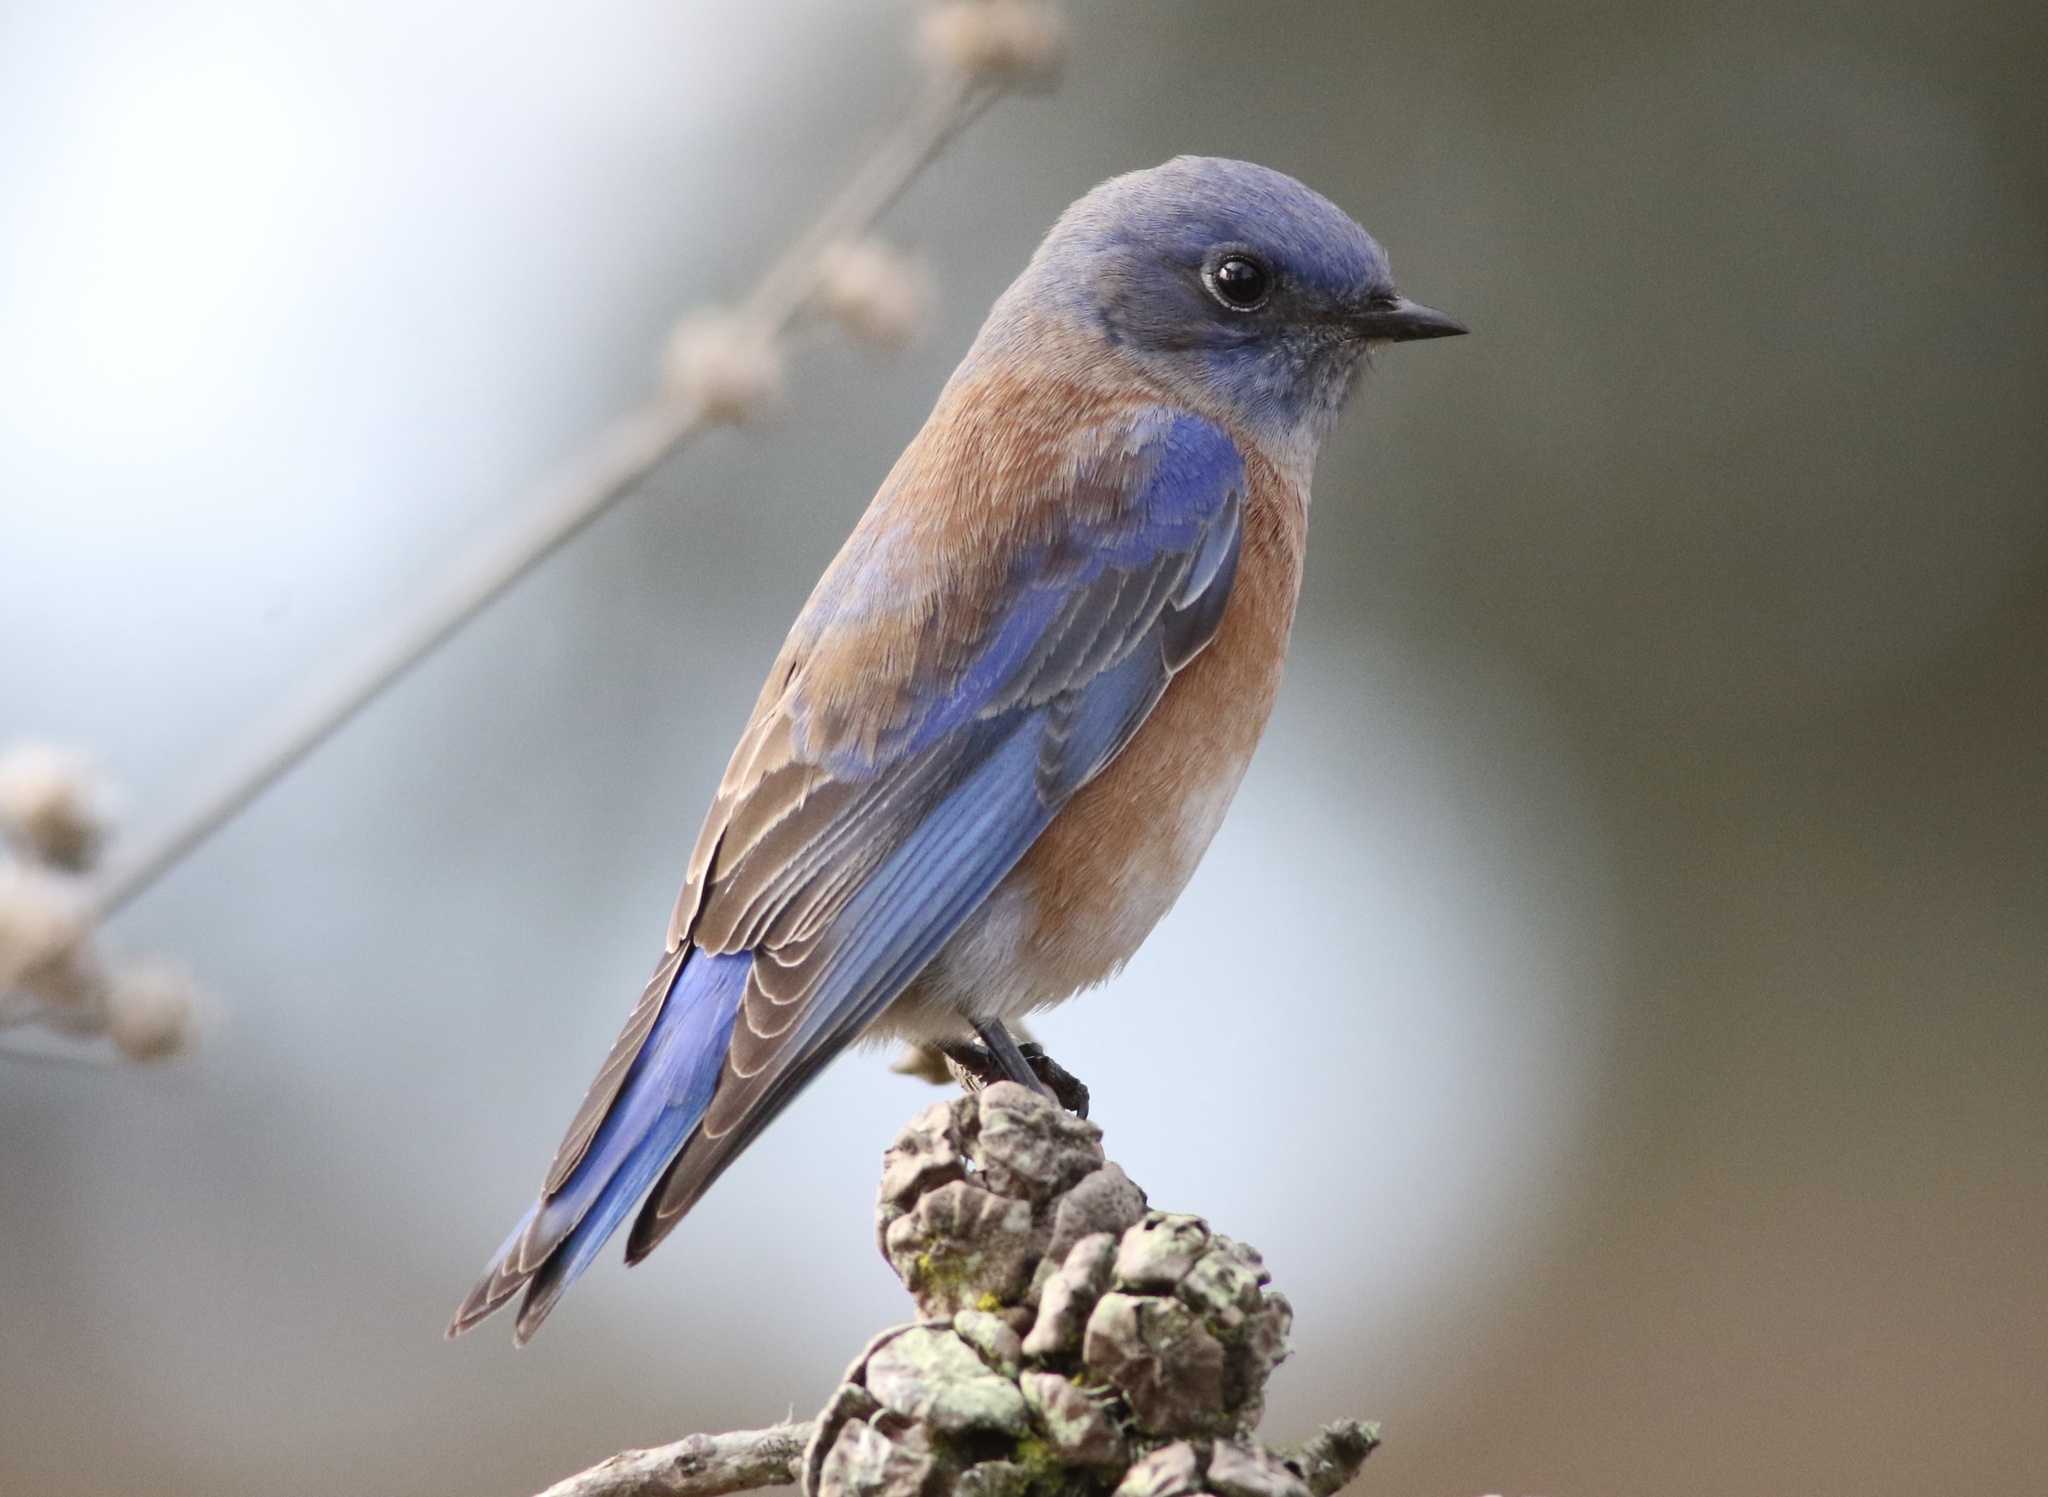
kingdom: Animalia
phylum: Chordata
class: Aves
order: Passeriformes
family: Turdidae
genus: Sialia
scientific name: Sialia mexicana
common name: Western bluebird
